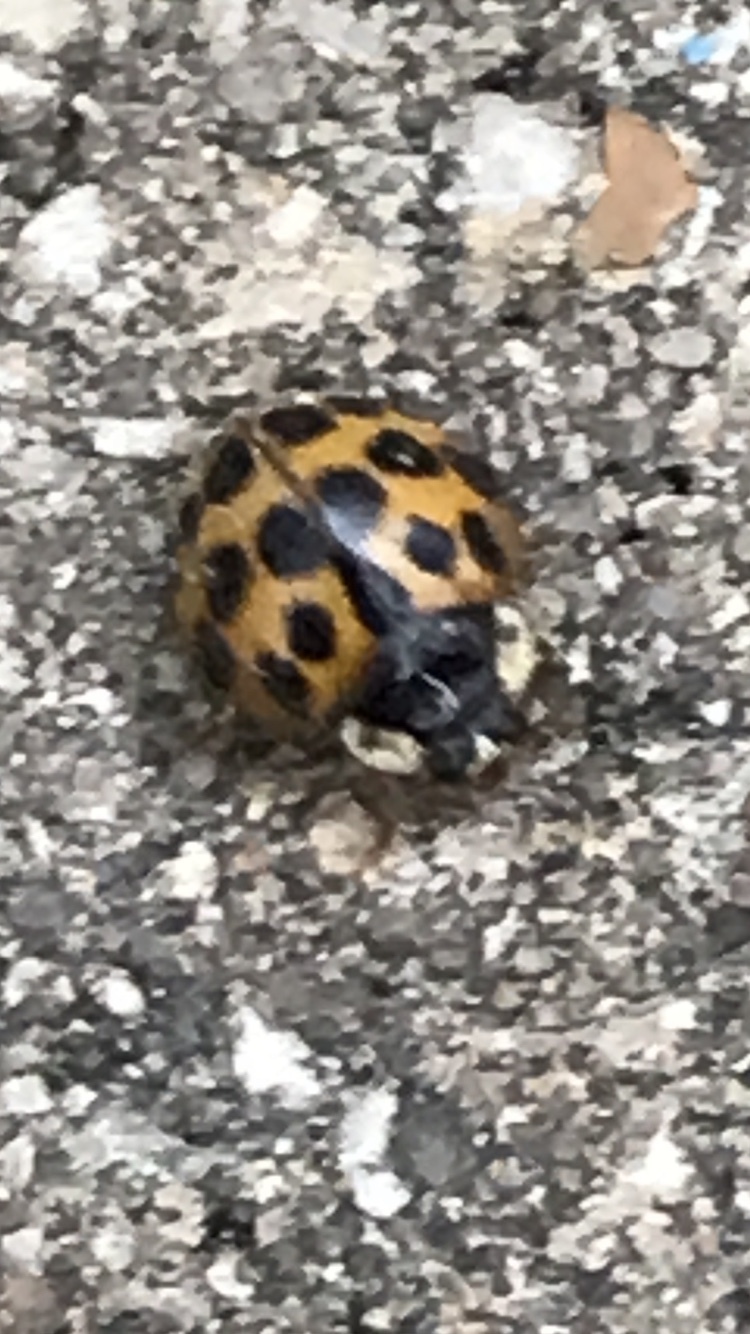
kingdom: Animalia
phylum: Arthropoda
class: Insecta
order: Coleoptera
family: Coccinellidae
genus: Harmonia
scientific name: Harmonia axyridis
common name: Harlequin ladybird
